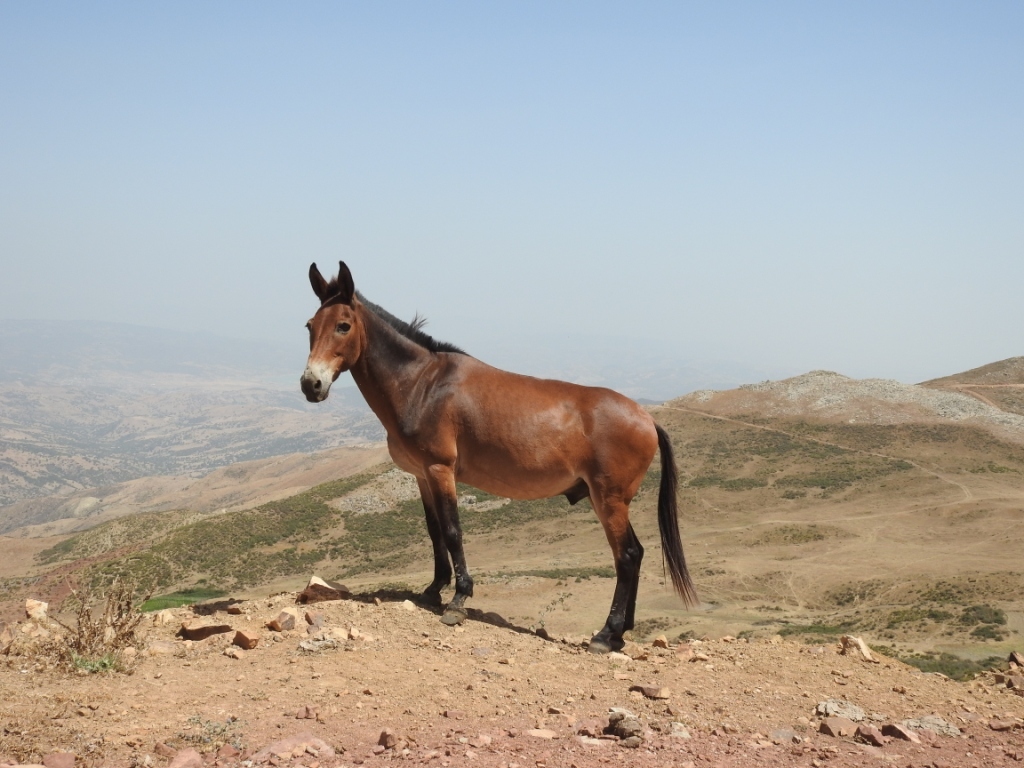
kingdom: Animalia
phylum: Chordata
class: Mammalia
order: Perissodactyla
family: Equidae
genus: Equus
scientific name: Equus
